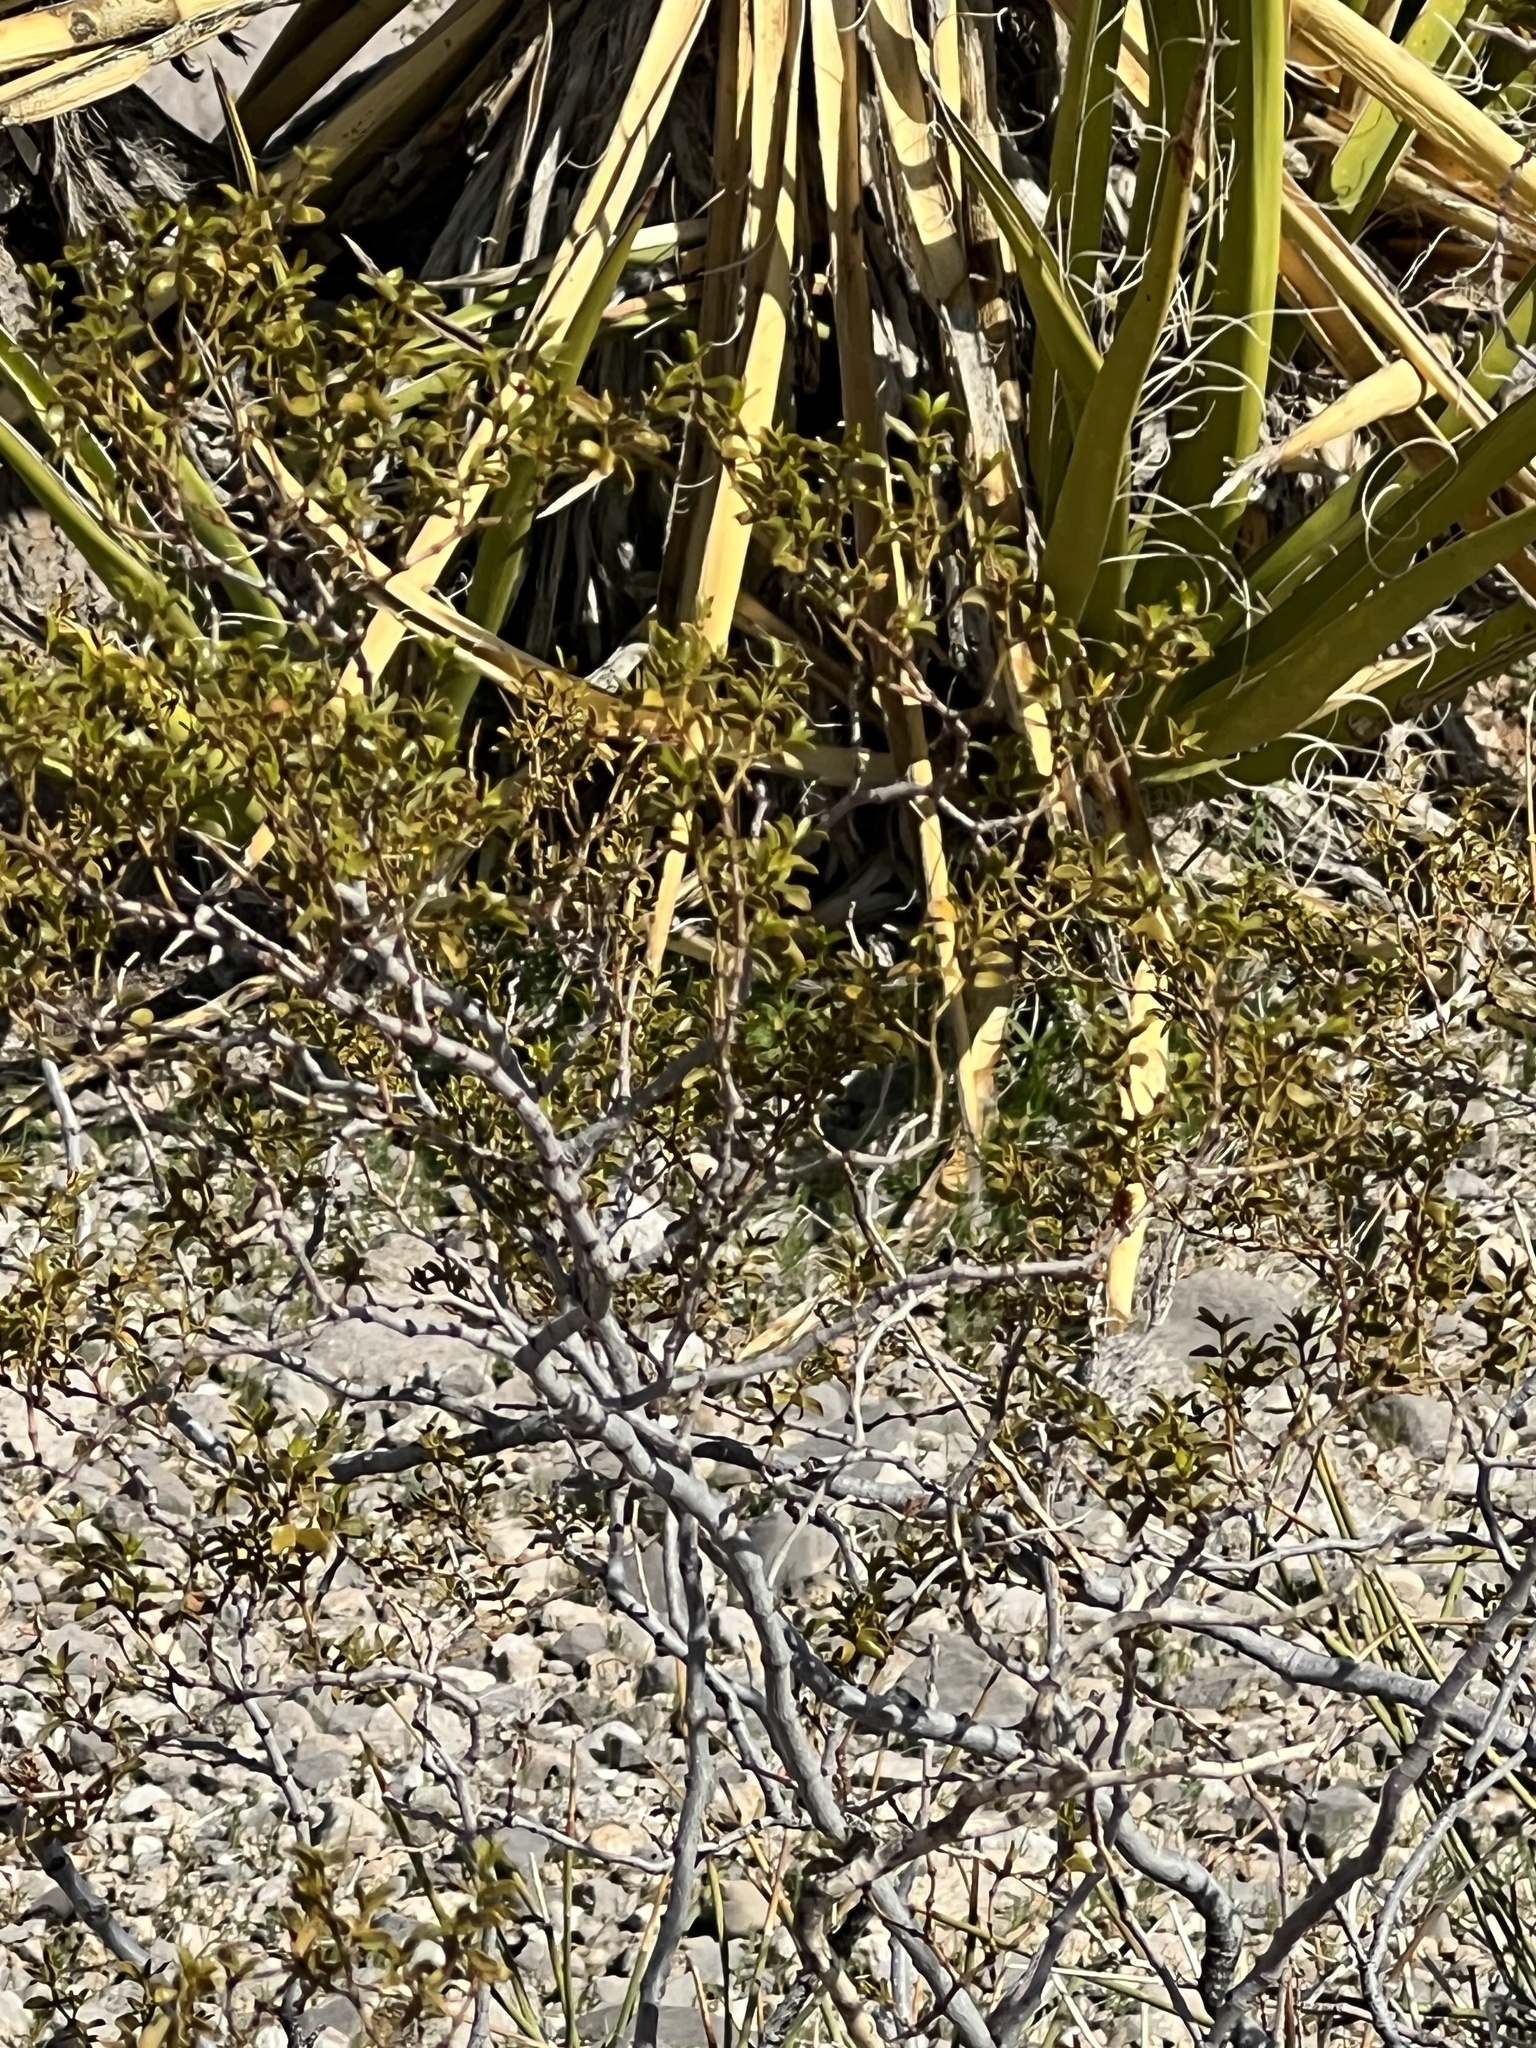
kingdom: Plantae
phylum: Tracheophyta
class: Magnoliopsida
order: Zygophyllales
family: Zygophyllaceae
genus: Larrea
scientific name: Larrea tridentata
